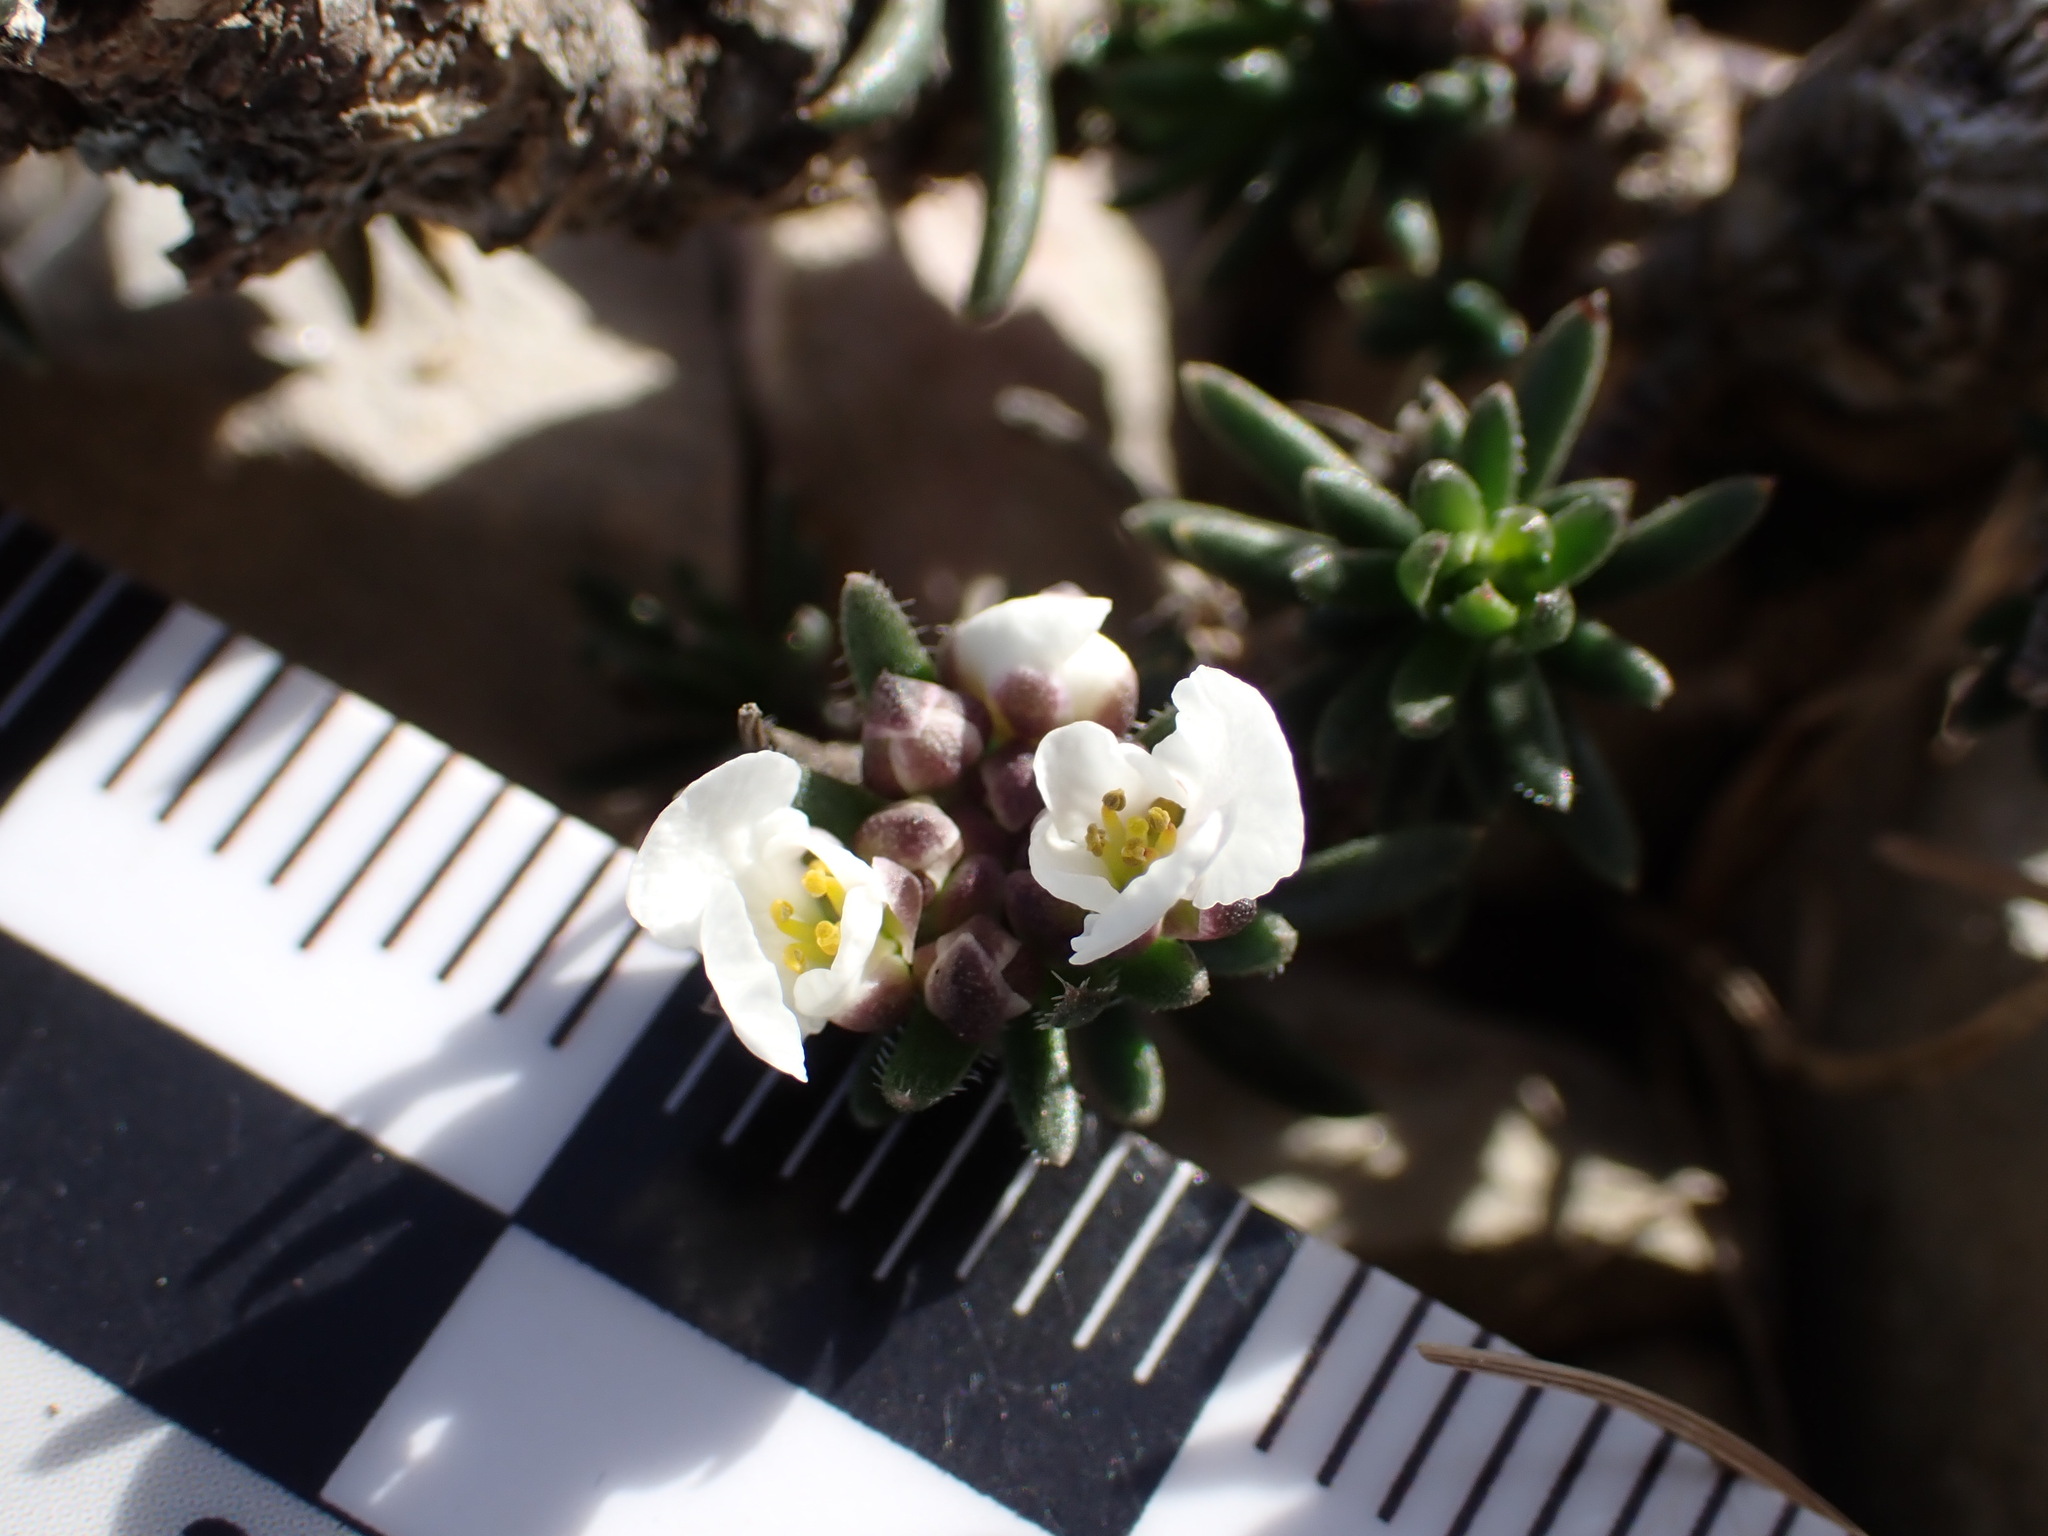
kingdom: Plantae
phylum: Tracheophyta
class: Magnoliopsida
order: Brassicales
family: Brassicaceae
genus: Iberis
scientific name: Iberis saxatilis
